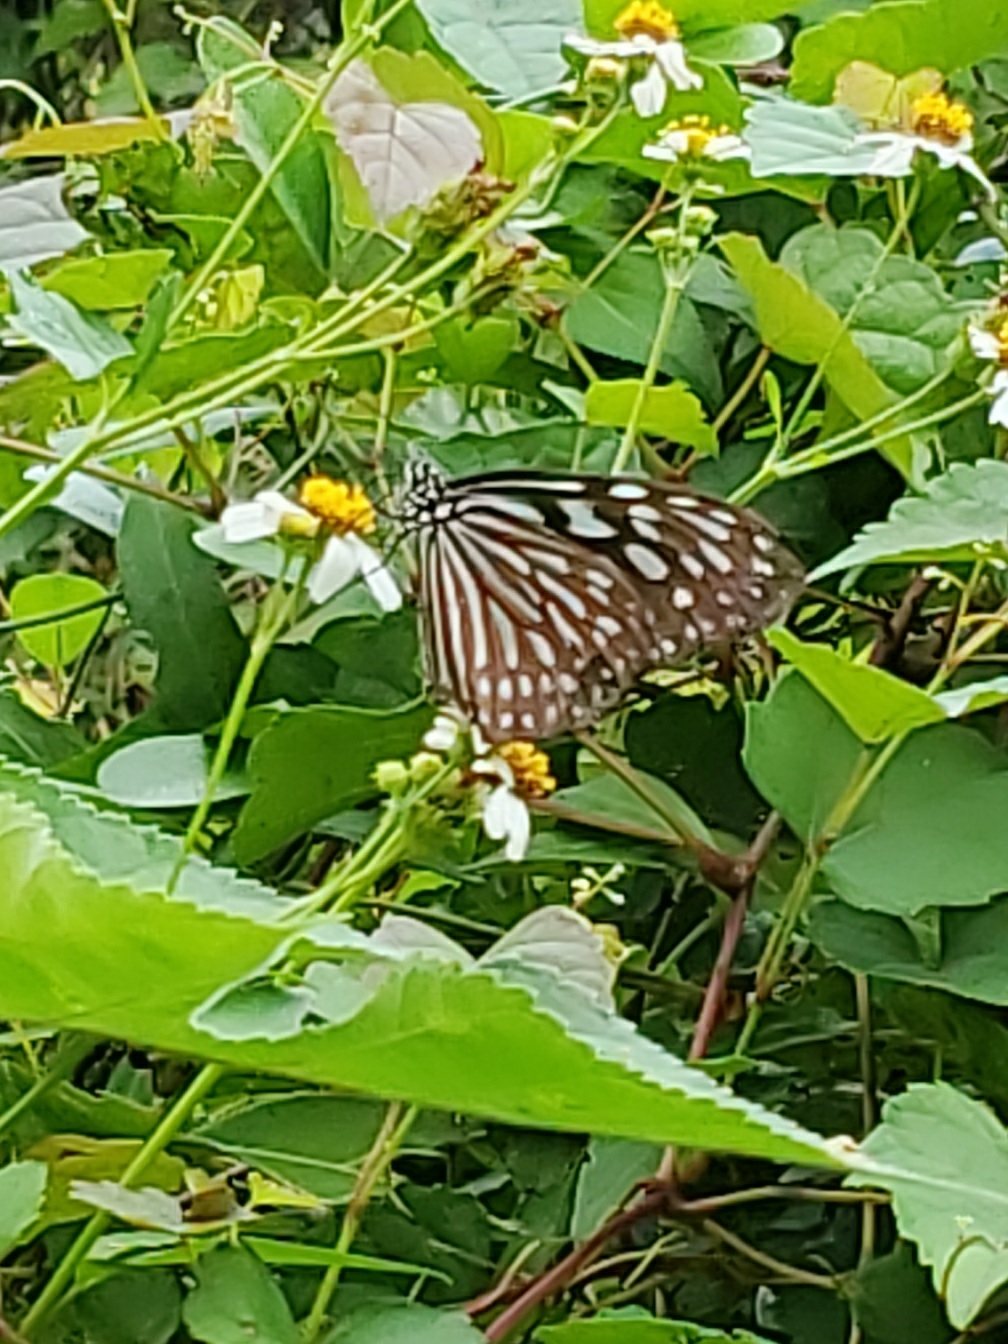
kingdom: Animalia
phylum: Arthropoda
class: Insecta
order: Lepidoptera
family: Nymphalidae
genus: Ideopsis
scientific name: Ideopsis similis
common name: Ceylon blue glassy tiger
